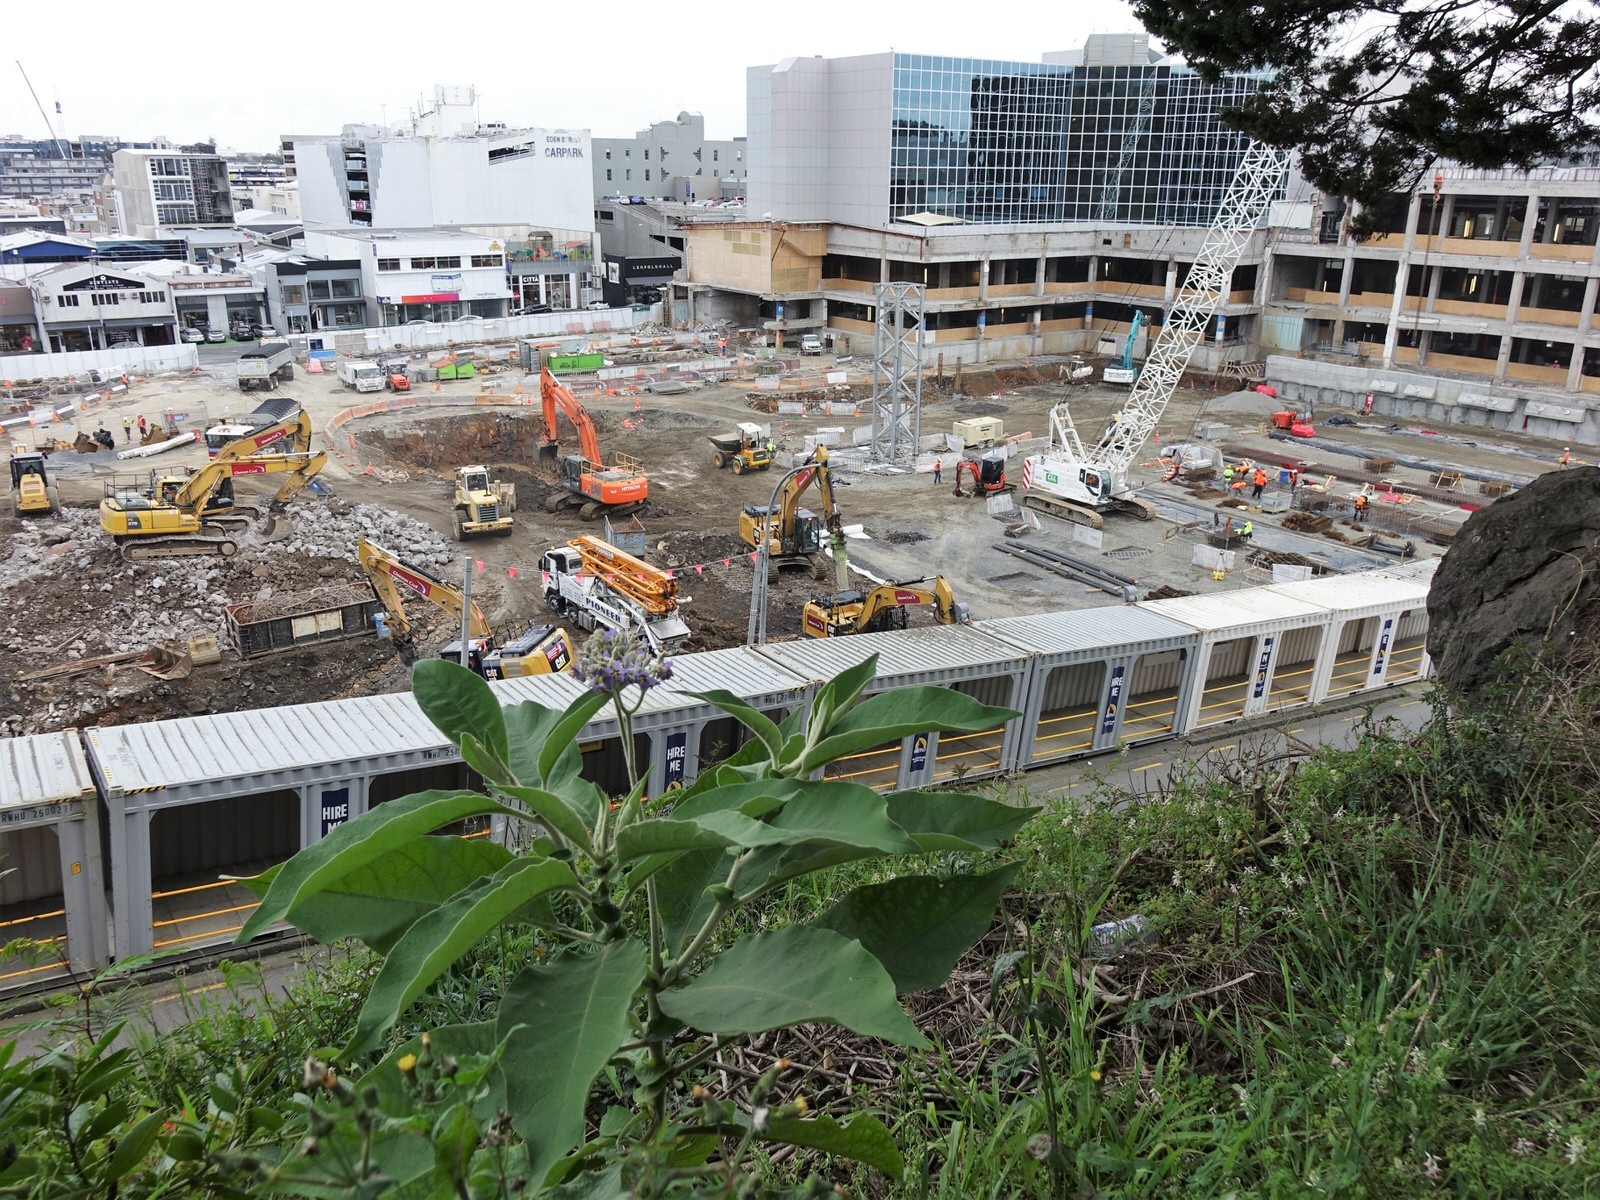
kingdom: Plantae
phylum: Tracheophyta
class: Magnoliopsida
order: Solanales
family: Solanaceae
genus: Solanum
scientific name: Solanum mauritianum
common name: Earleaf nightshade
